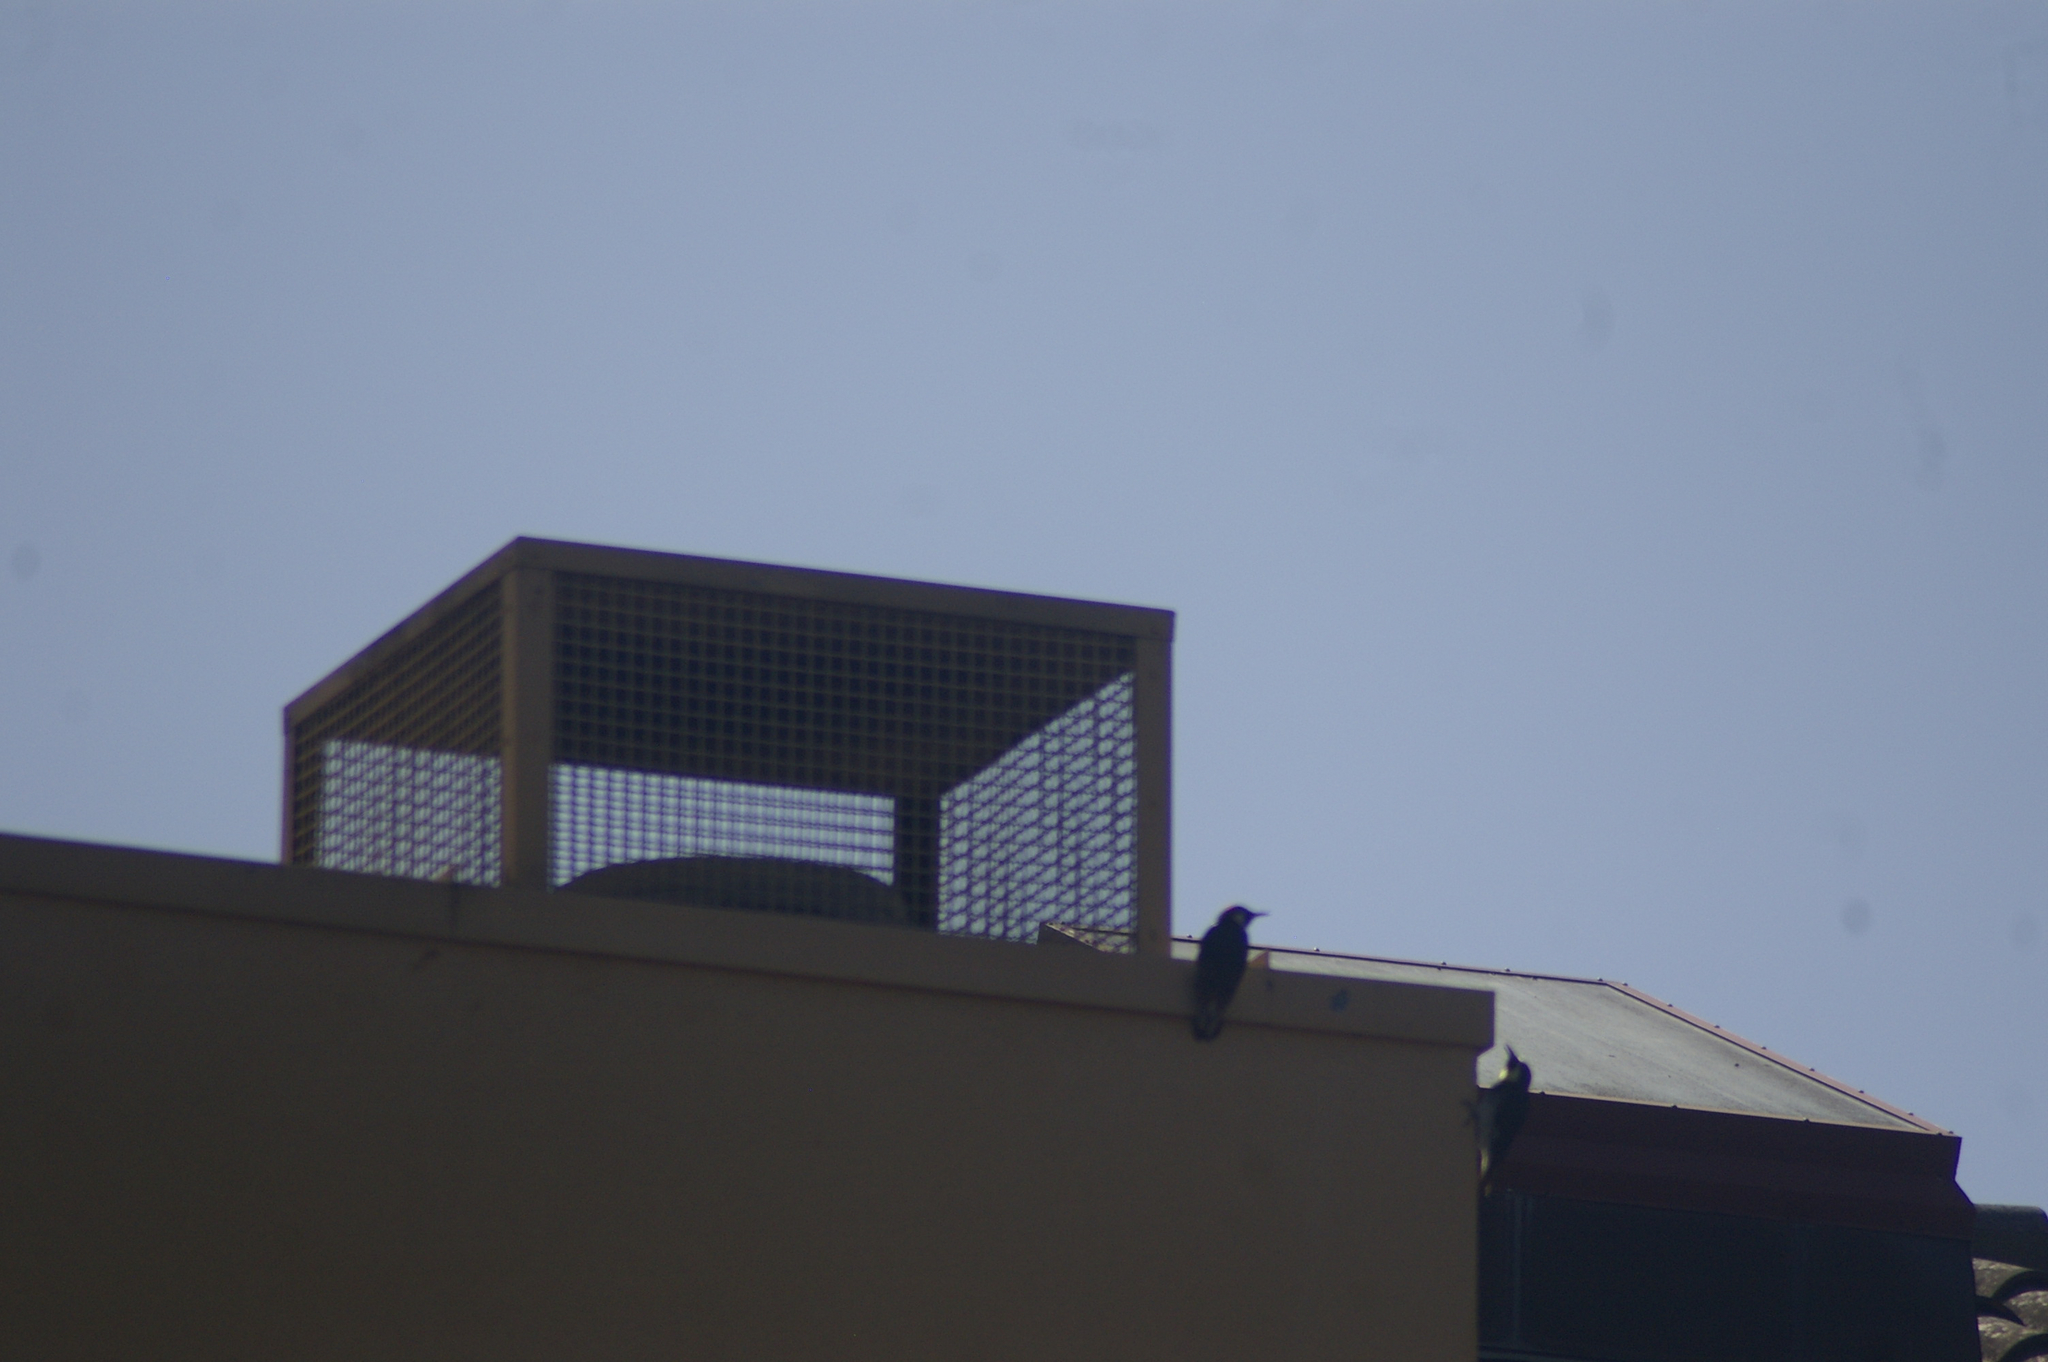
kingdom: Animalia
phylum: Chordata
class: Aves
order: Piciformes
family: Picidae
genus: Melanerpes
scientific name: Melanerpes formicivorus
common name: Acorn woodpecker
